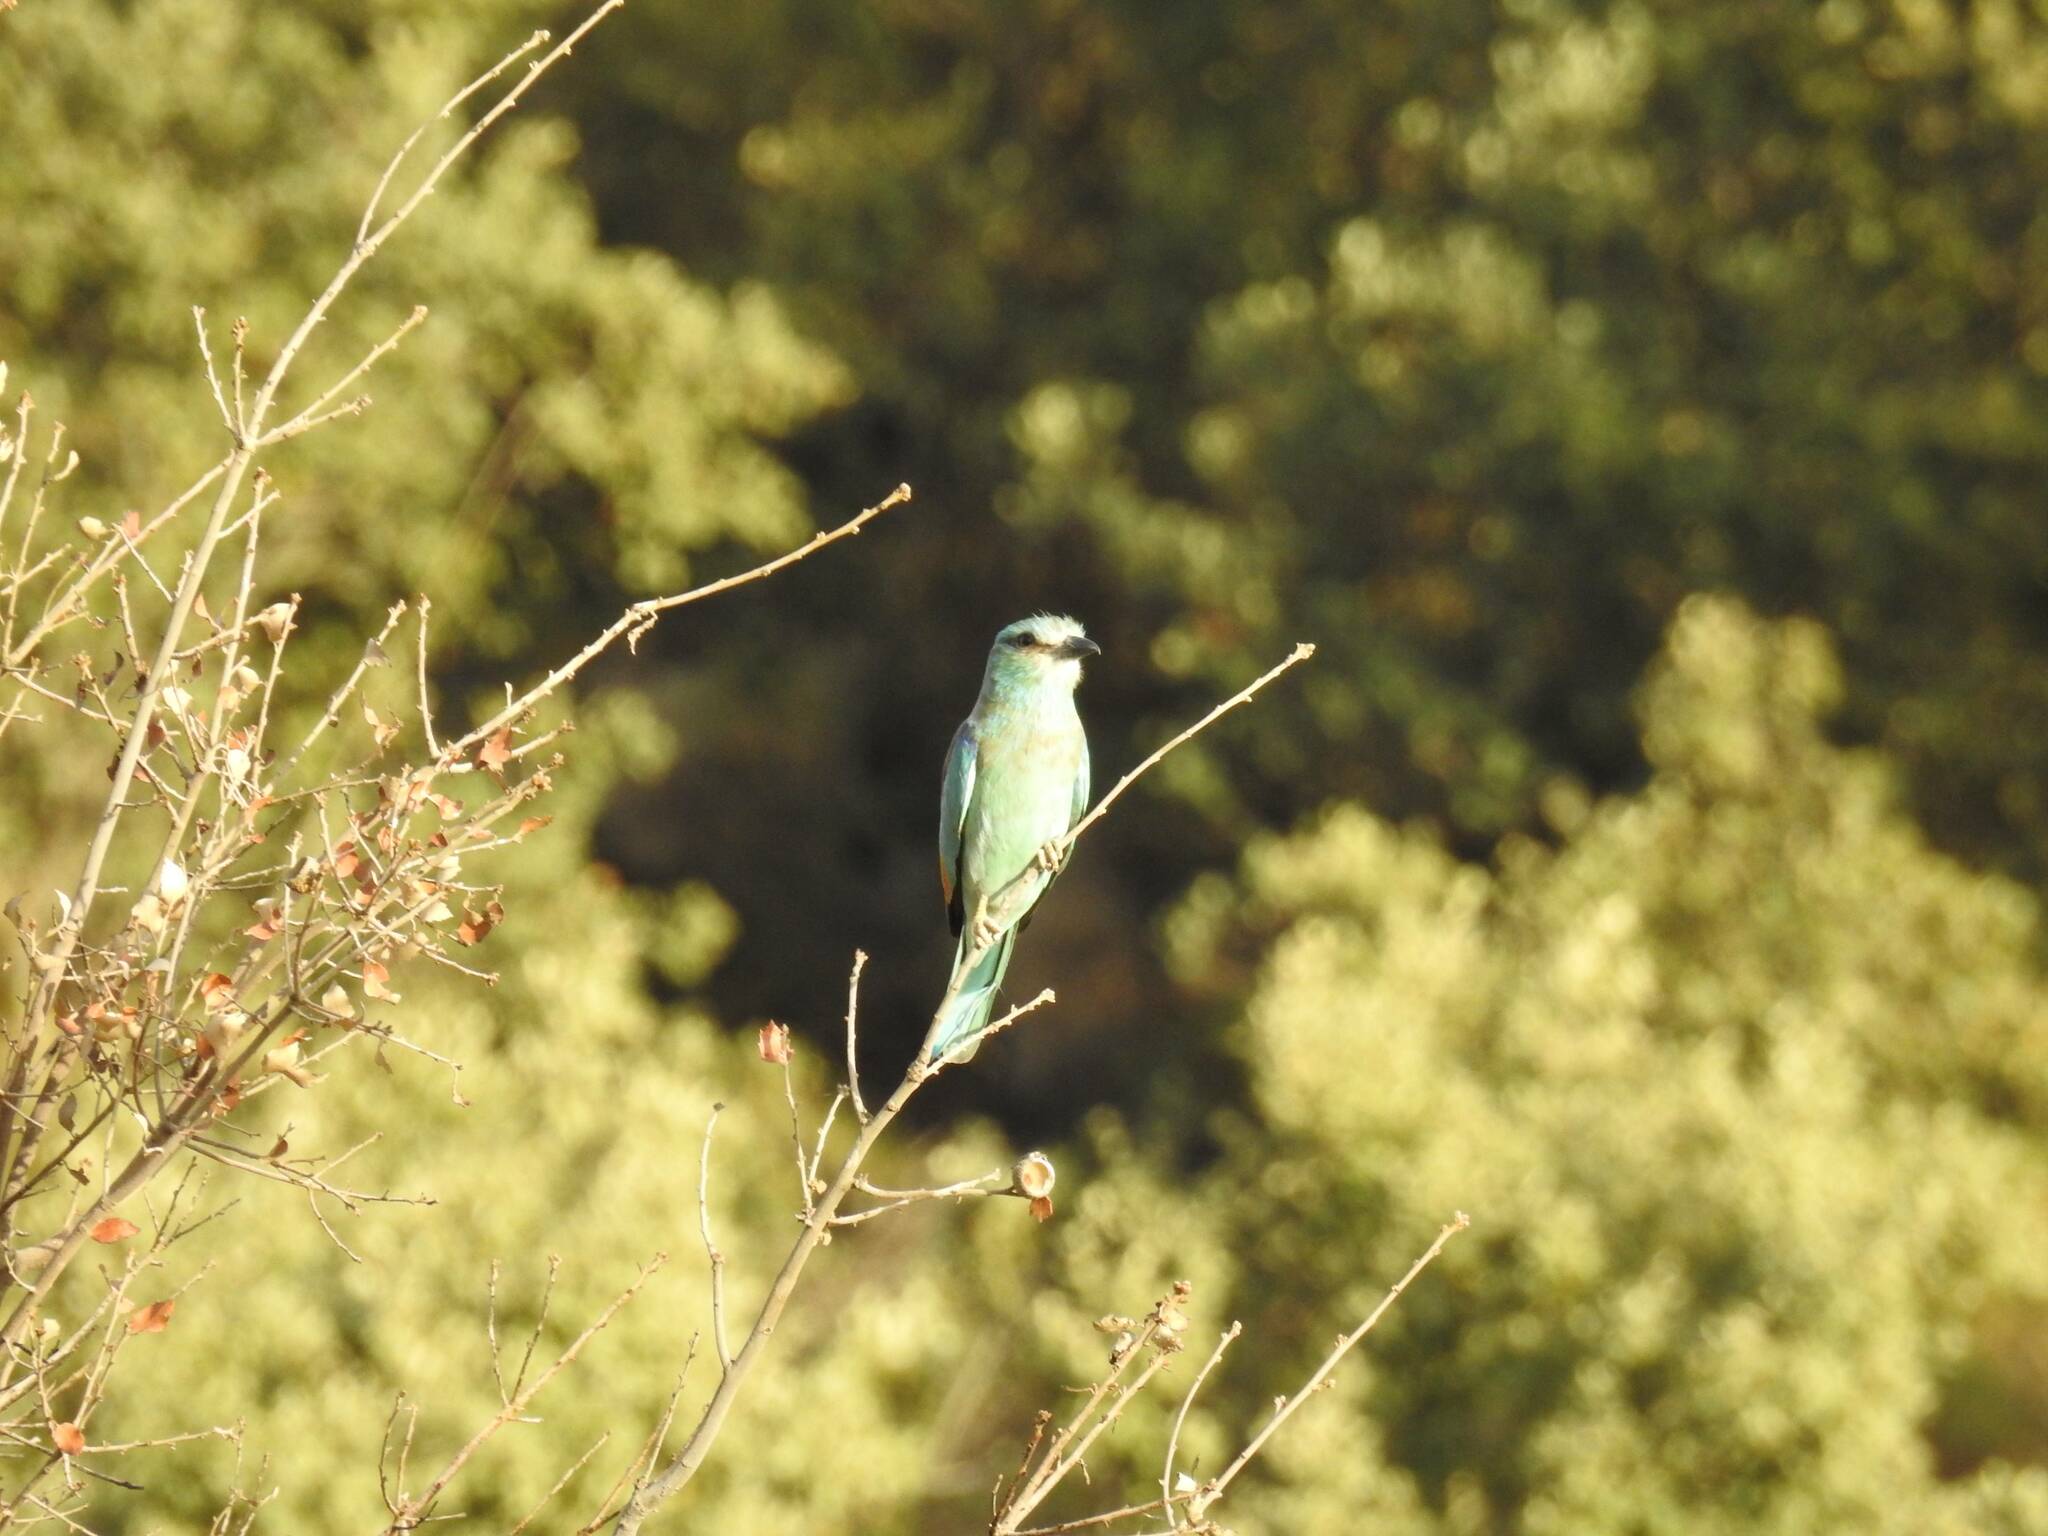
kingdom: Animalia
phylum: Chordata
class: Aves
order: Coraciiformes
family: Coraciidae
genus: Coracias
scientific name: Coracias garrulus
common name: European roller
